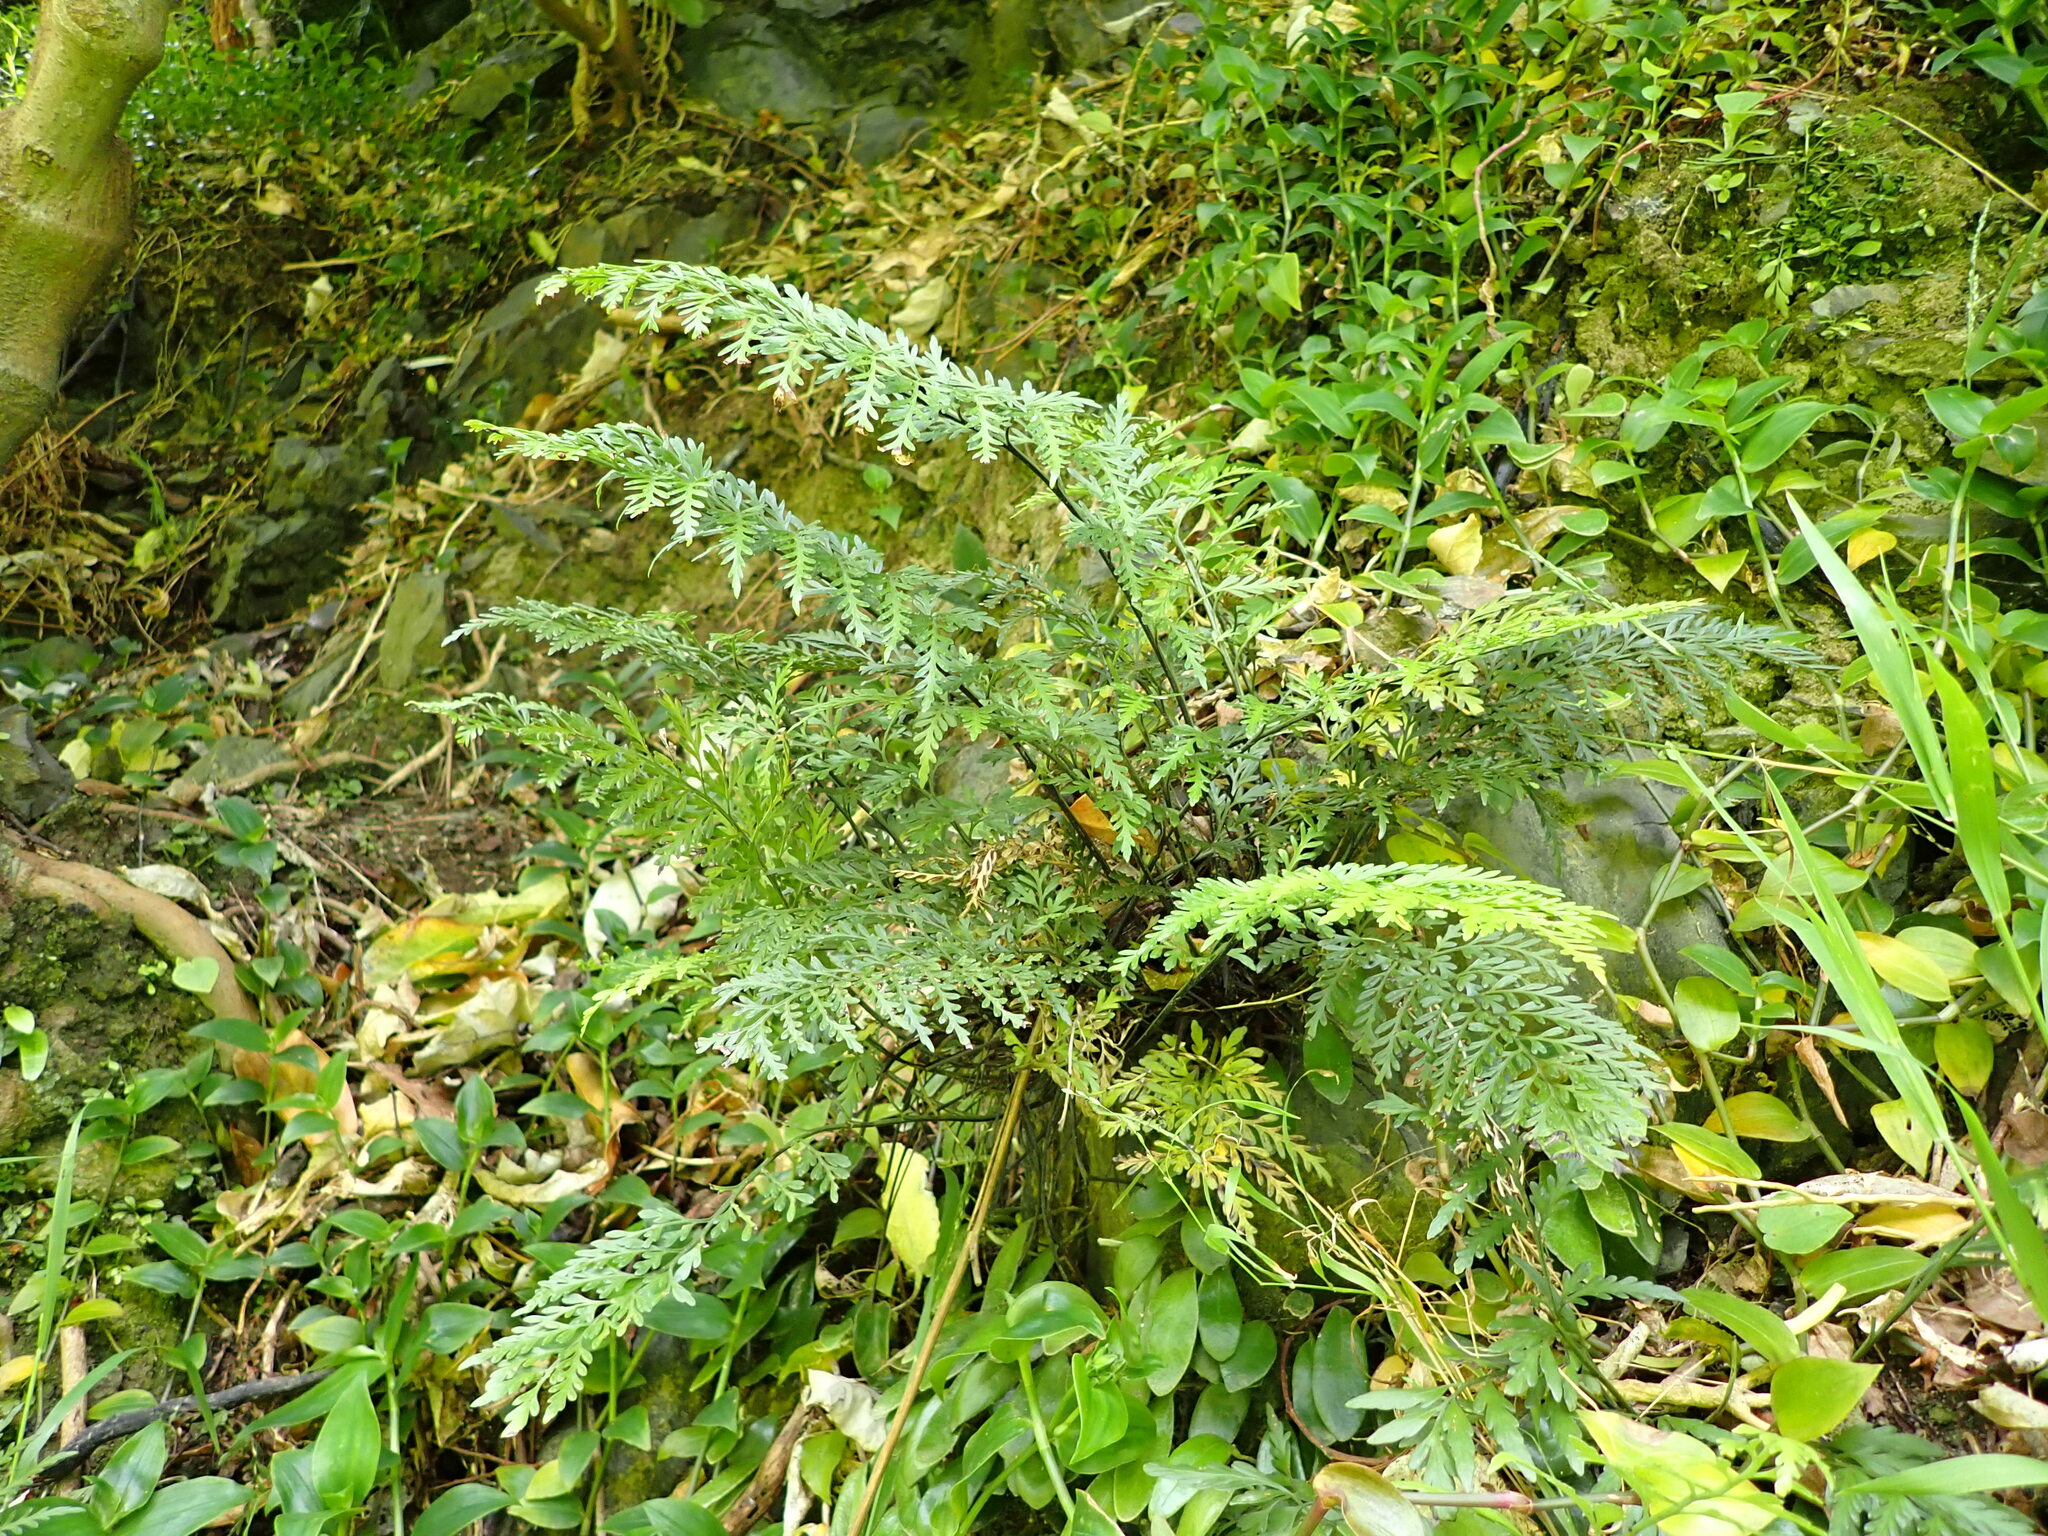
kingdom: Plantae
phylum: Tracheophyta
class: Polypodiopsida
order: Polypodiales
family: Aspleniaceae
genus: Asplenium
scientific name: Asplenium appendiculatum
